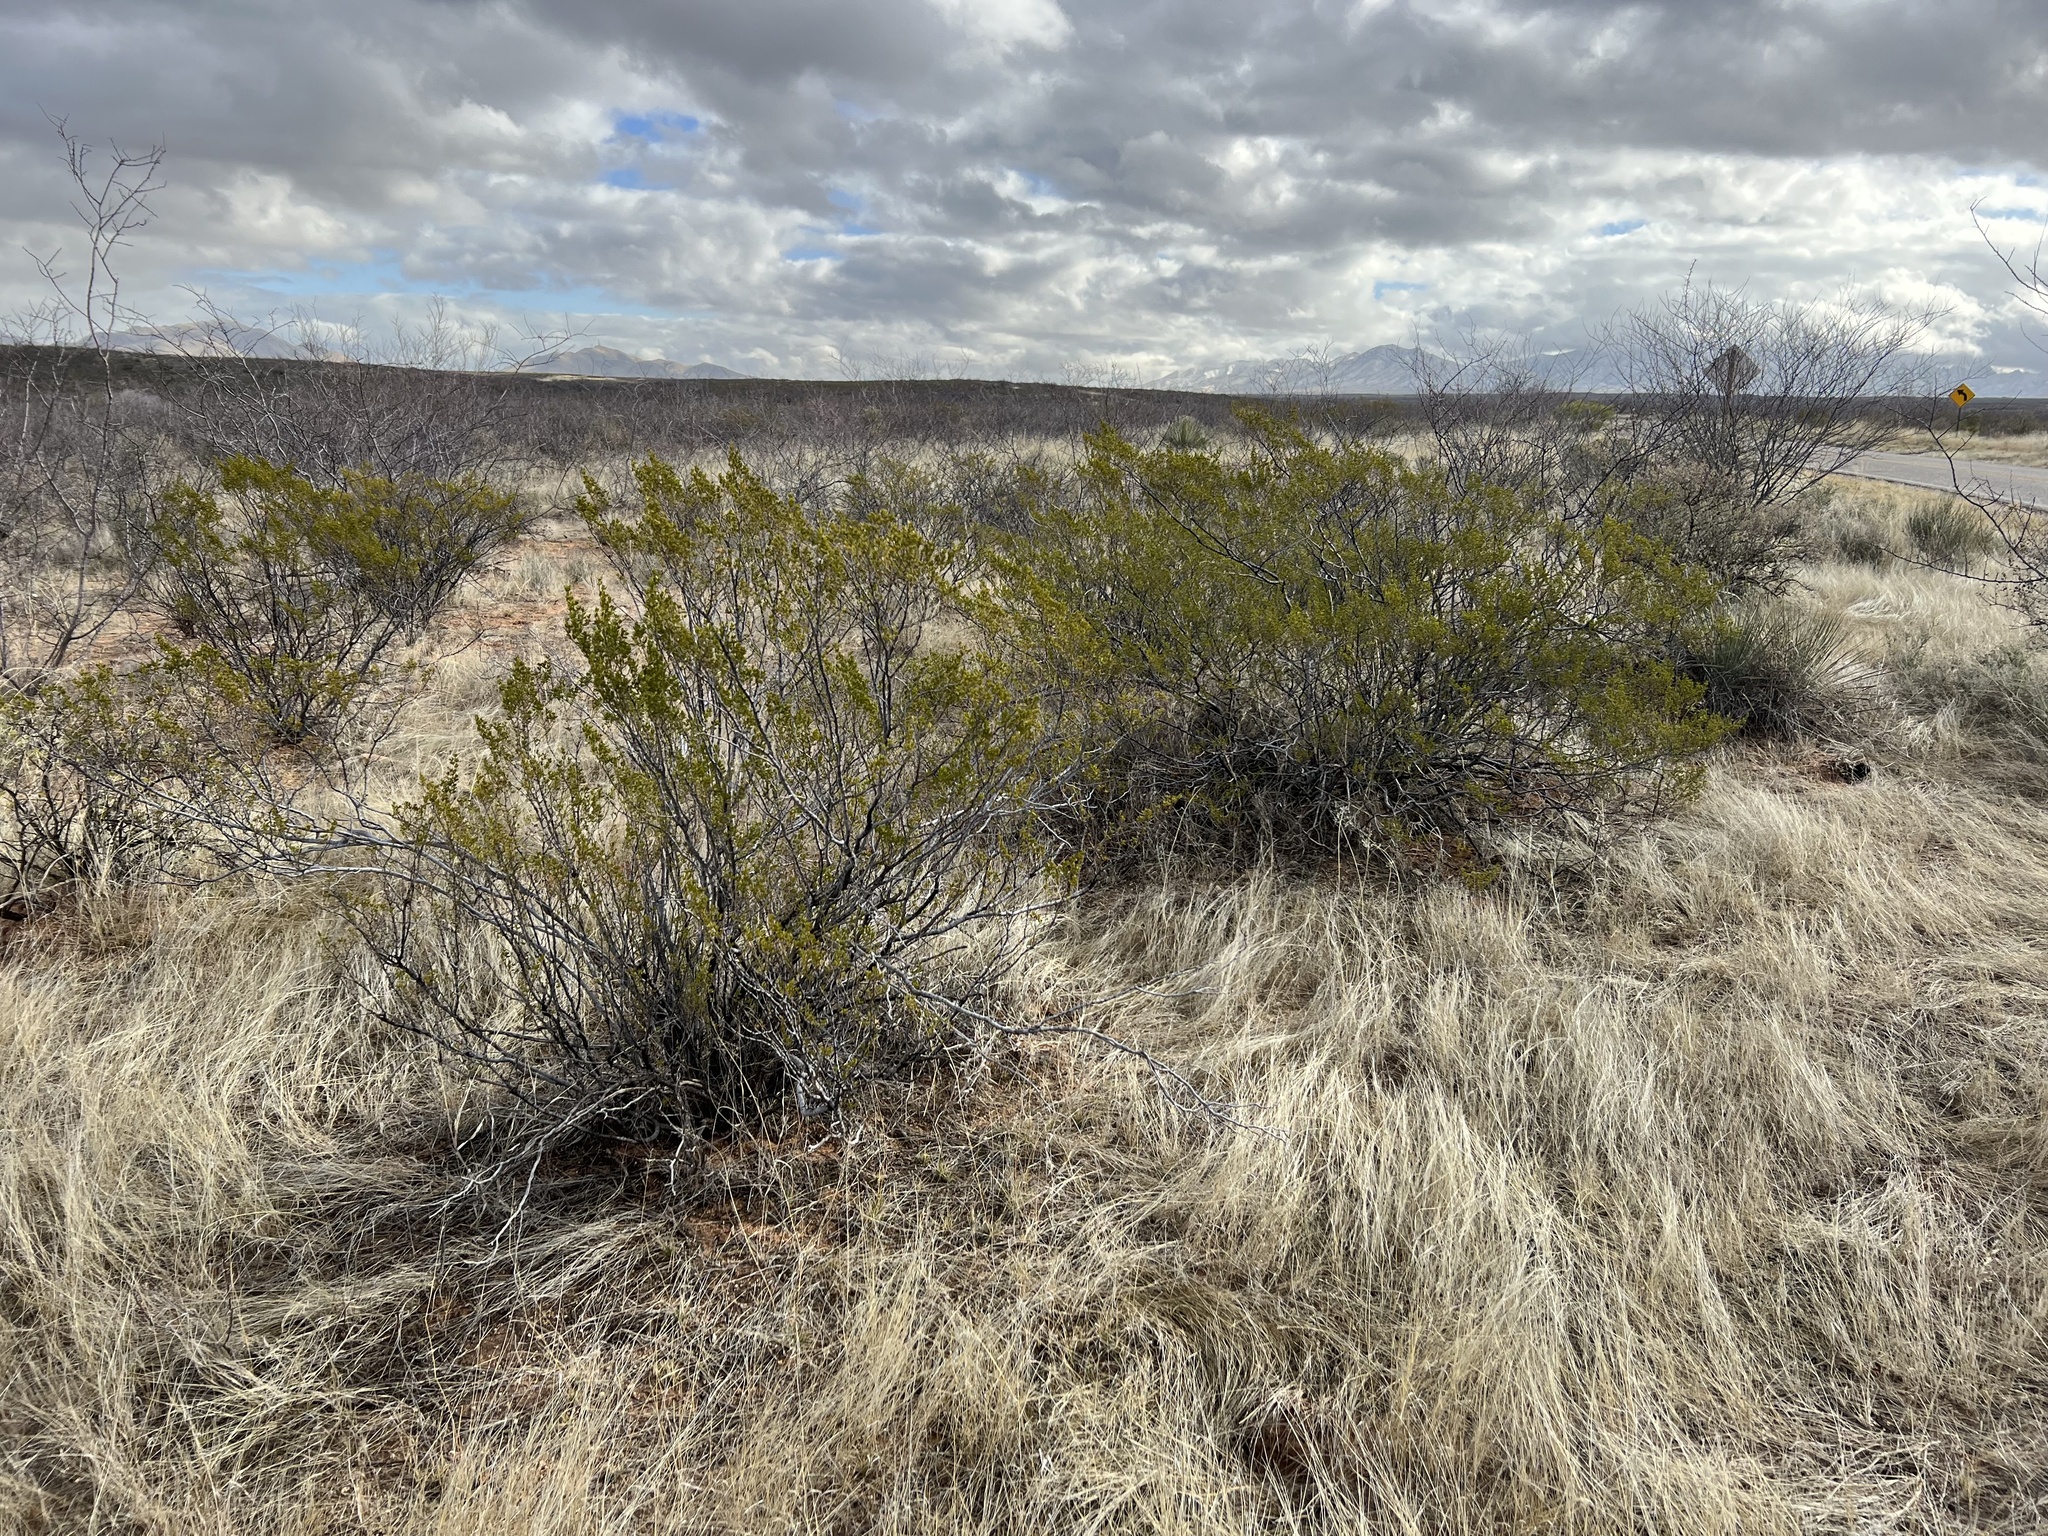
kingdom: Plantae
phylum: Tracheophyta
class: Magnoliopsida
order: Zygophyllales
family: Zygophyllaceae
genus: Larrea
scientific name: Larrea tridentata
